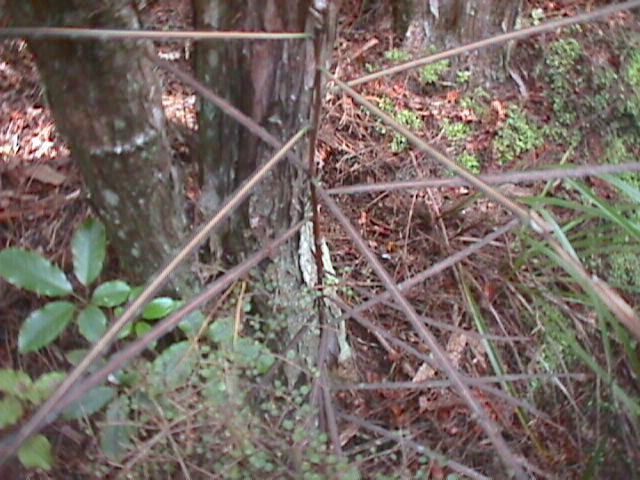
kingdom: Plantae
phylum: Tracheophyta
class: Magnoliopsida
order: Apiales
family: Araliaceae
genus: Pseudopanax
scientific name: Pseudopanax crassifolius
